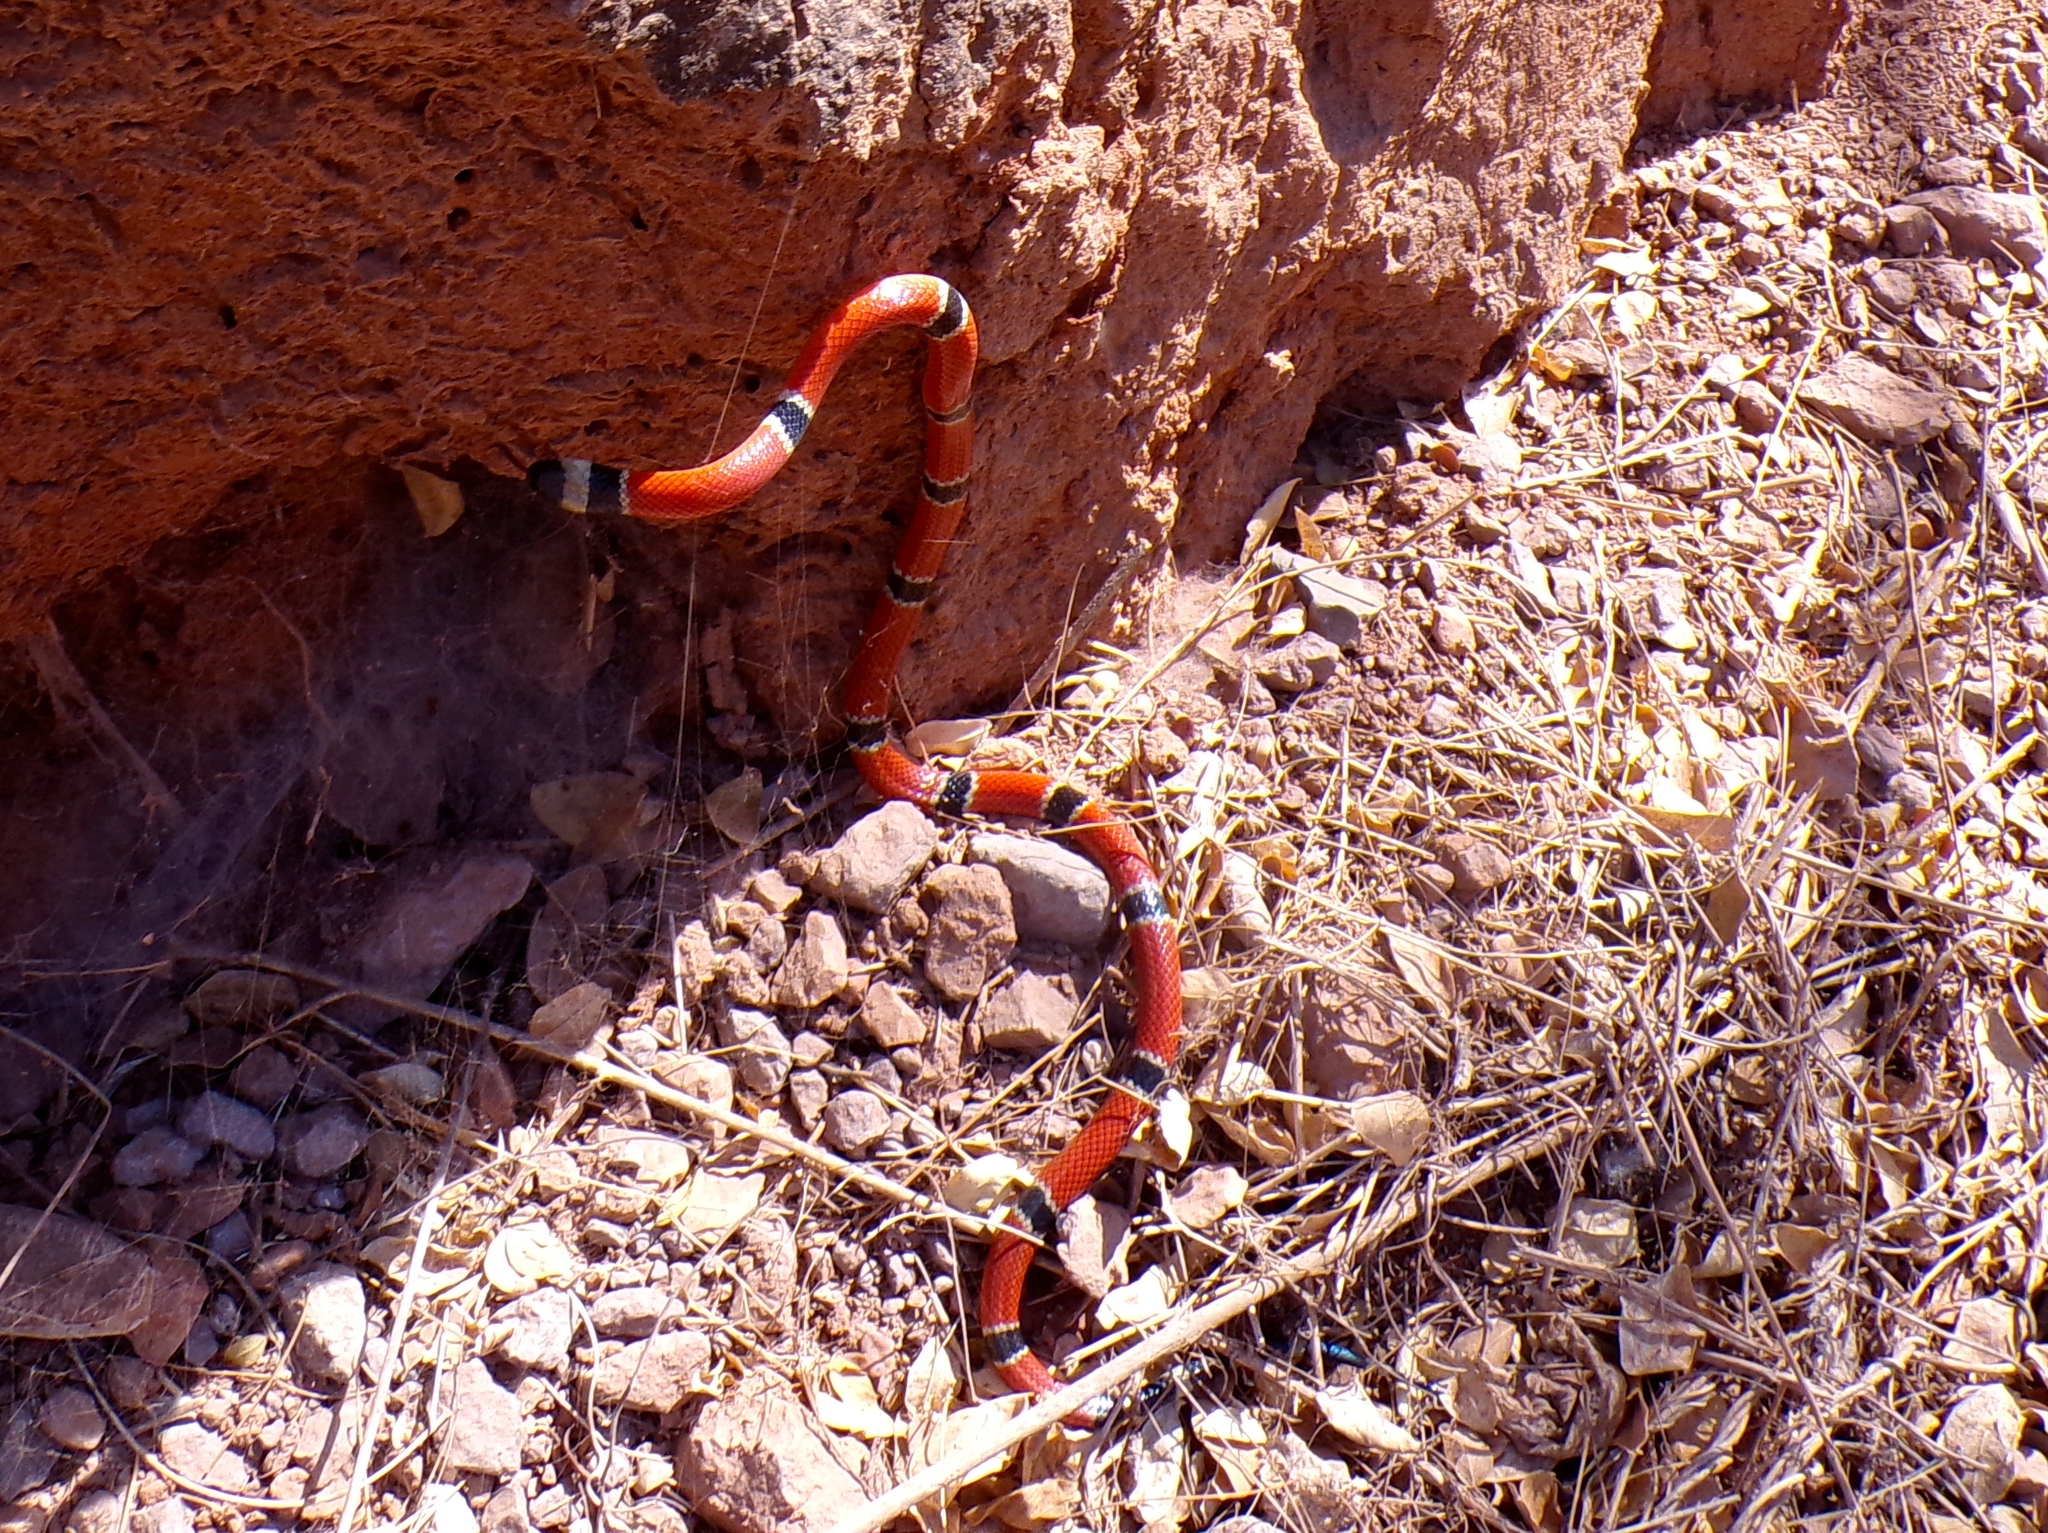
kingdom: Animalia
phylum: Chordata
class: Squamata
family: Elapidae
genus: Micrurus
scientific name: Micrurus distans
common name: Clear-banded coral snake
